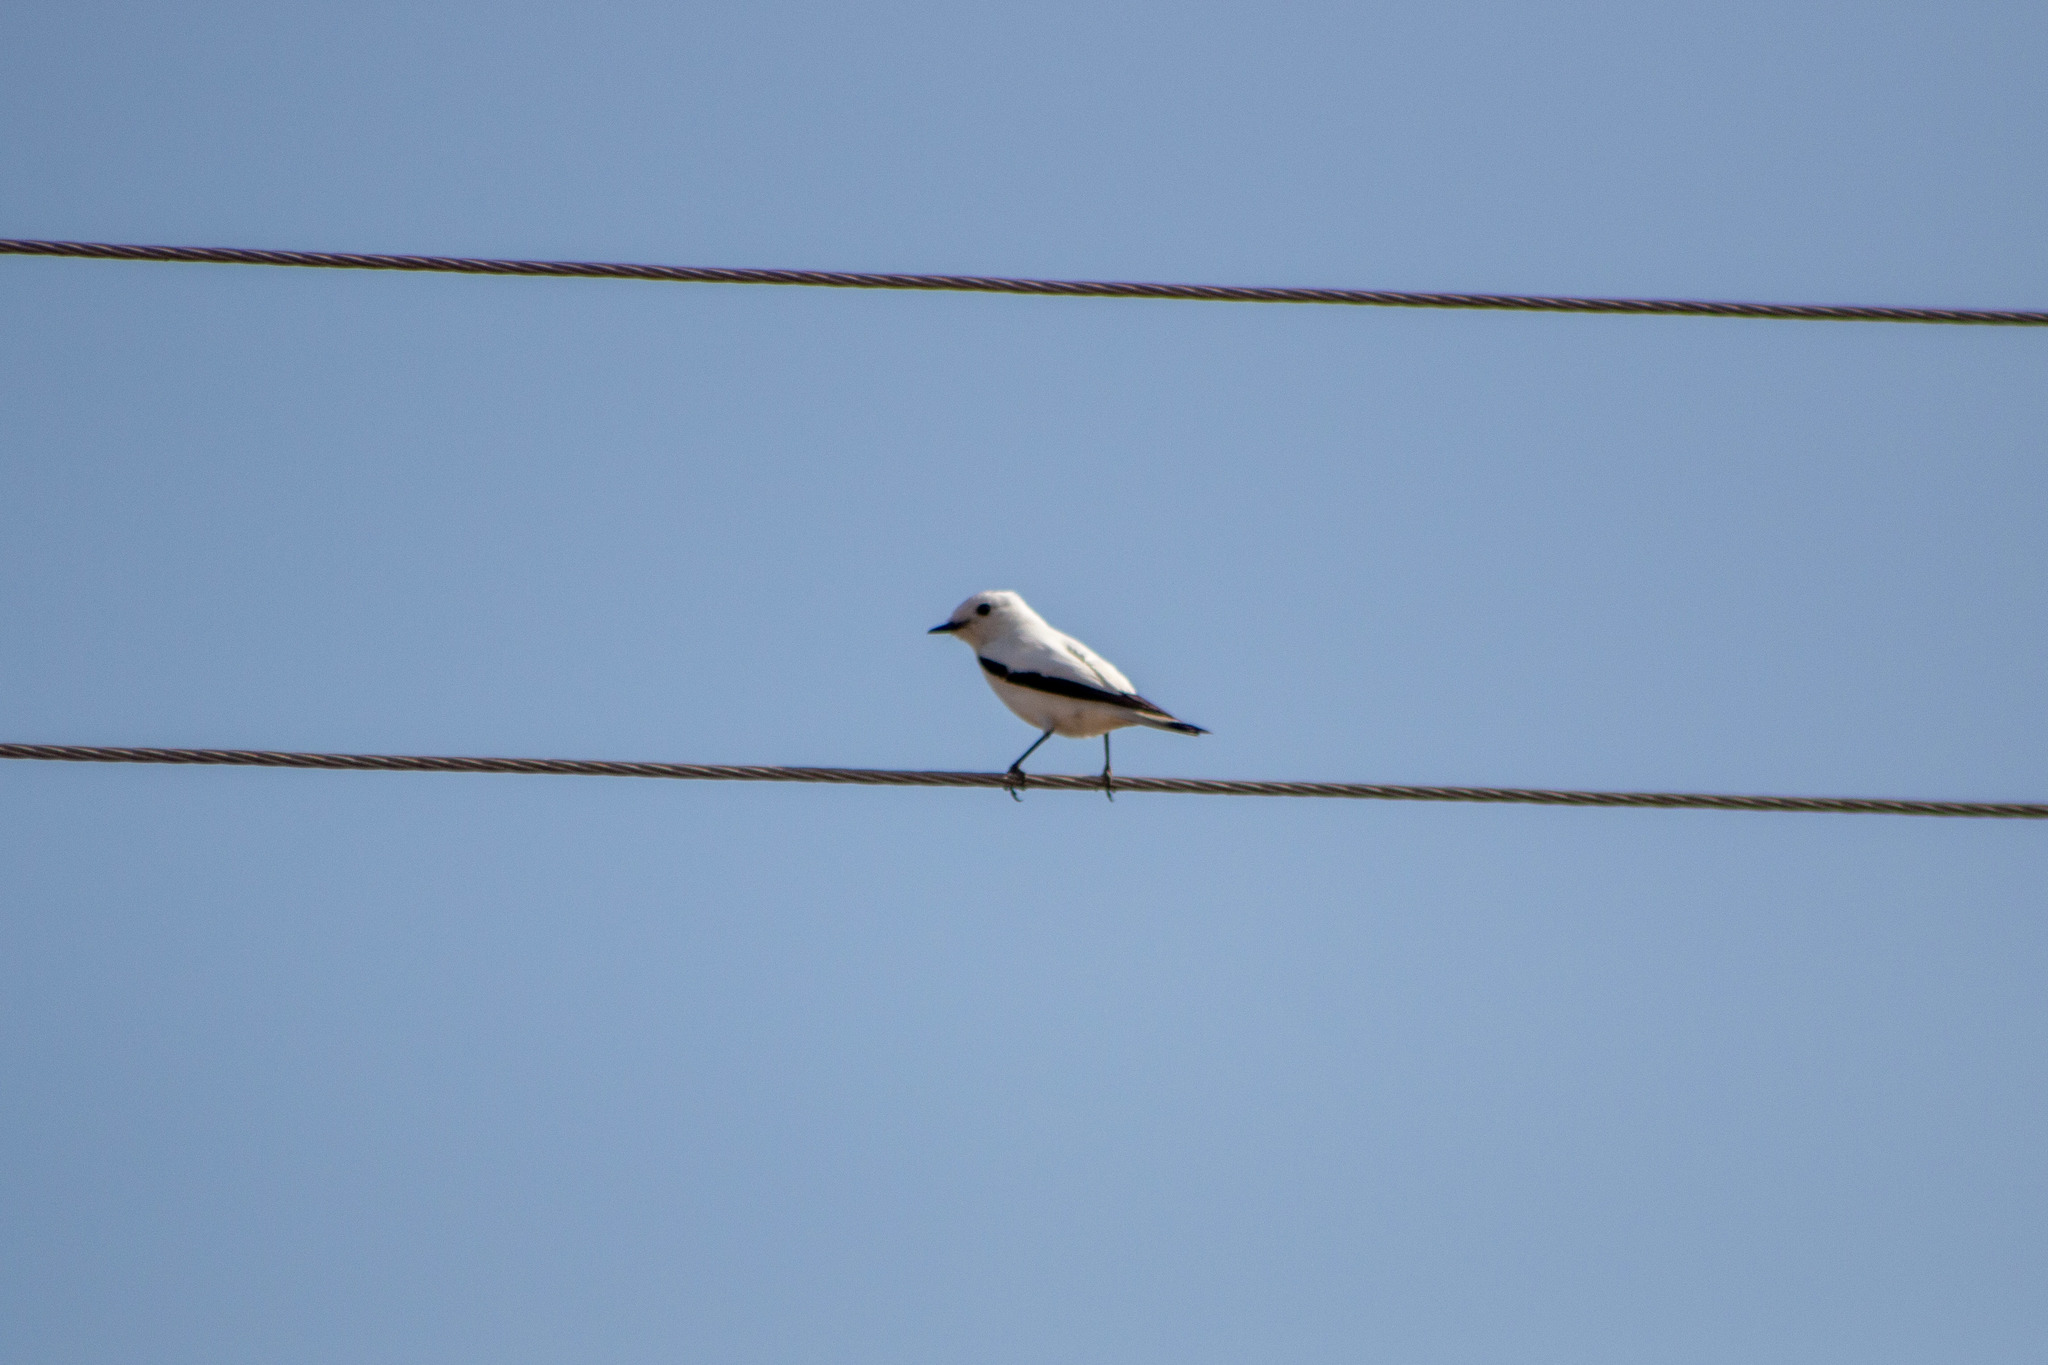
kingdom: Animalia
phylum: Chordata
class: Aves
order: Passeriformes
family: Tyrannidae
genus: Xolmis
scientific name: Xolmis irupero
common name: White monjita
